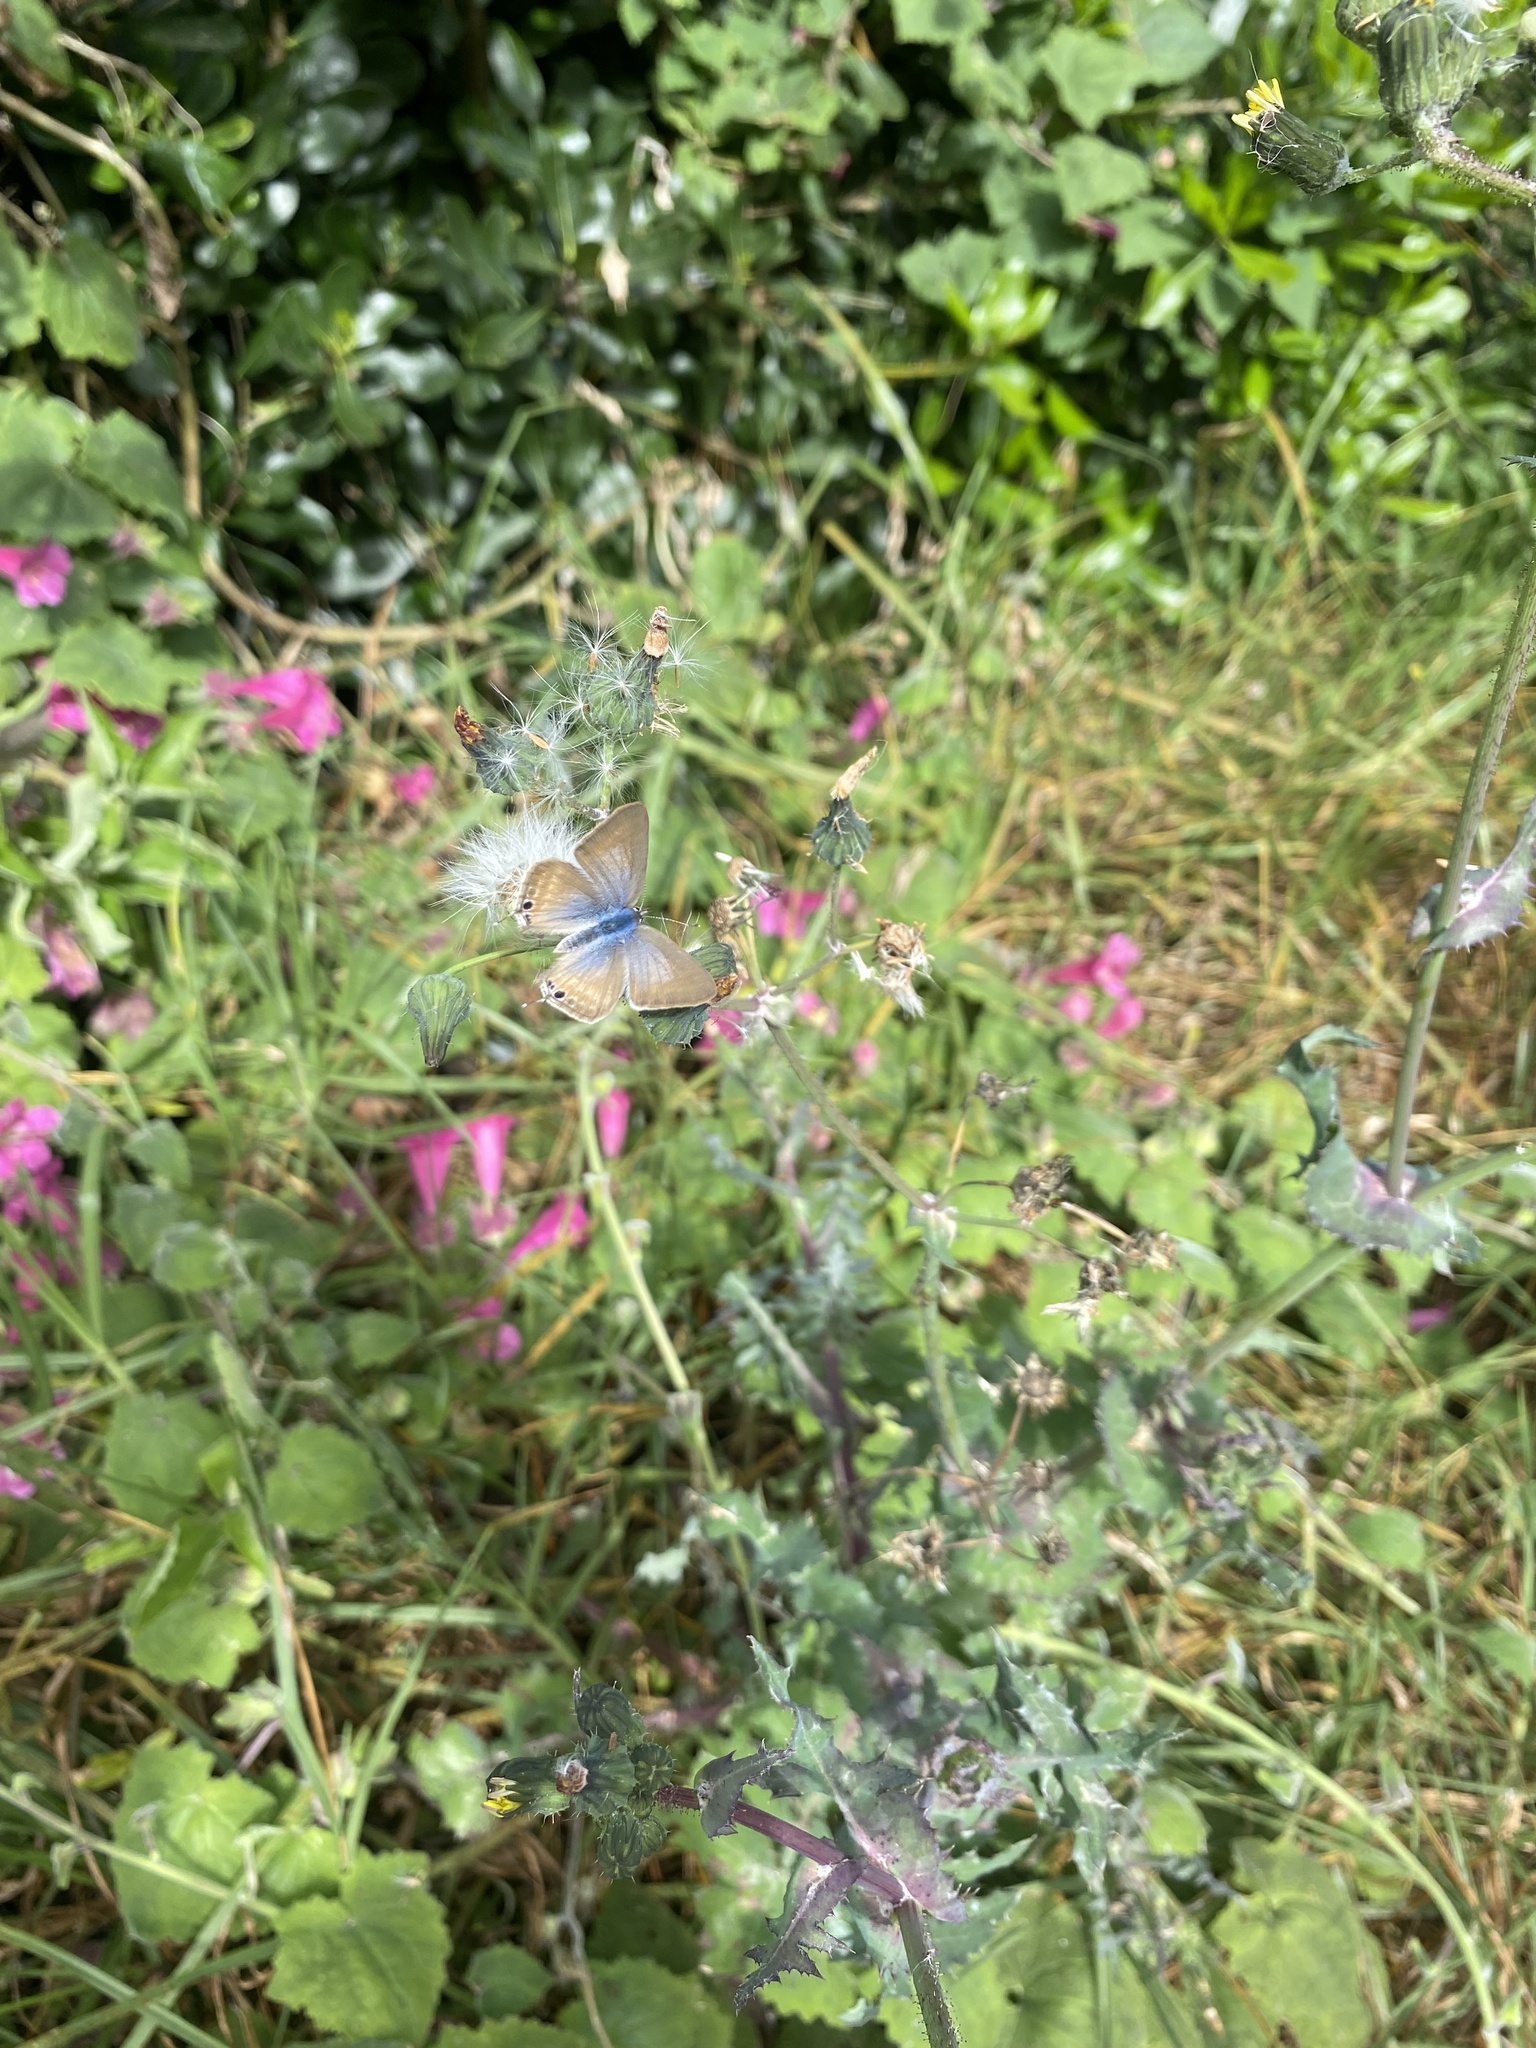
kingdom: Animalia
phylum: Arthropoda
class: Insecta
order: Lepidoptera
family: Lycaenidae
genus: Lampides
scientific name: Lampides boeticus
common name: Long-tailed blue
